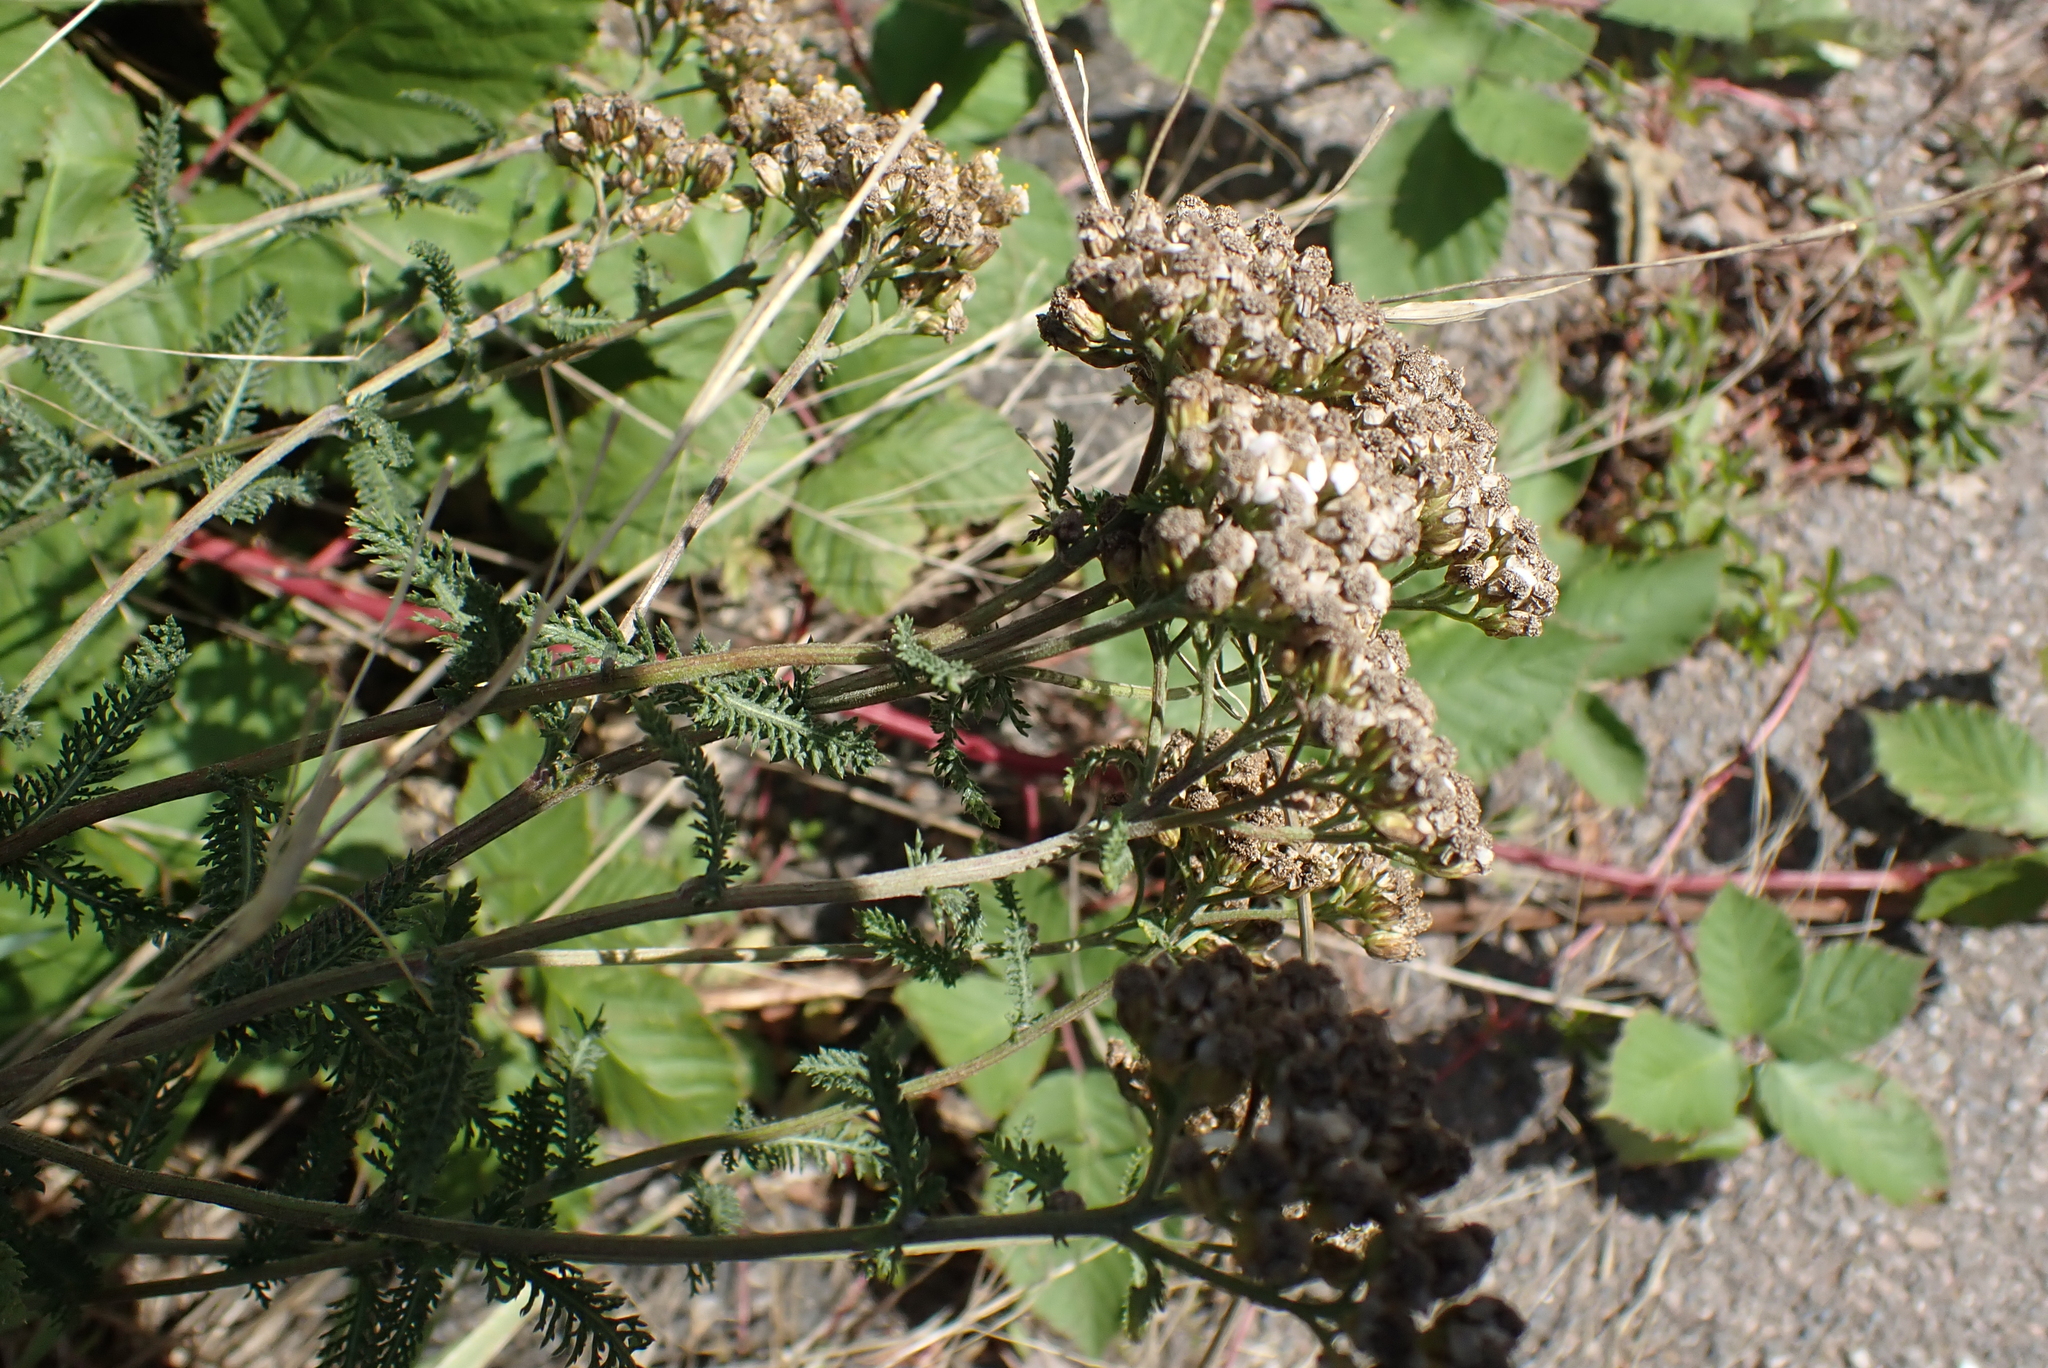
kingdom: Plantae
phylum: Tracheophyta
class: Magnoliopsida
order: Asterales
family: Asteraceae
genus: Achillea
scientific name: Achillea millefolium
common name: Yarrow
